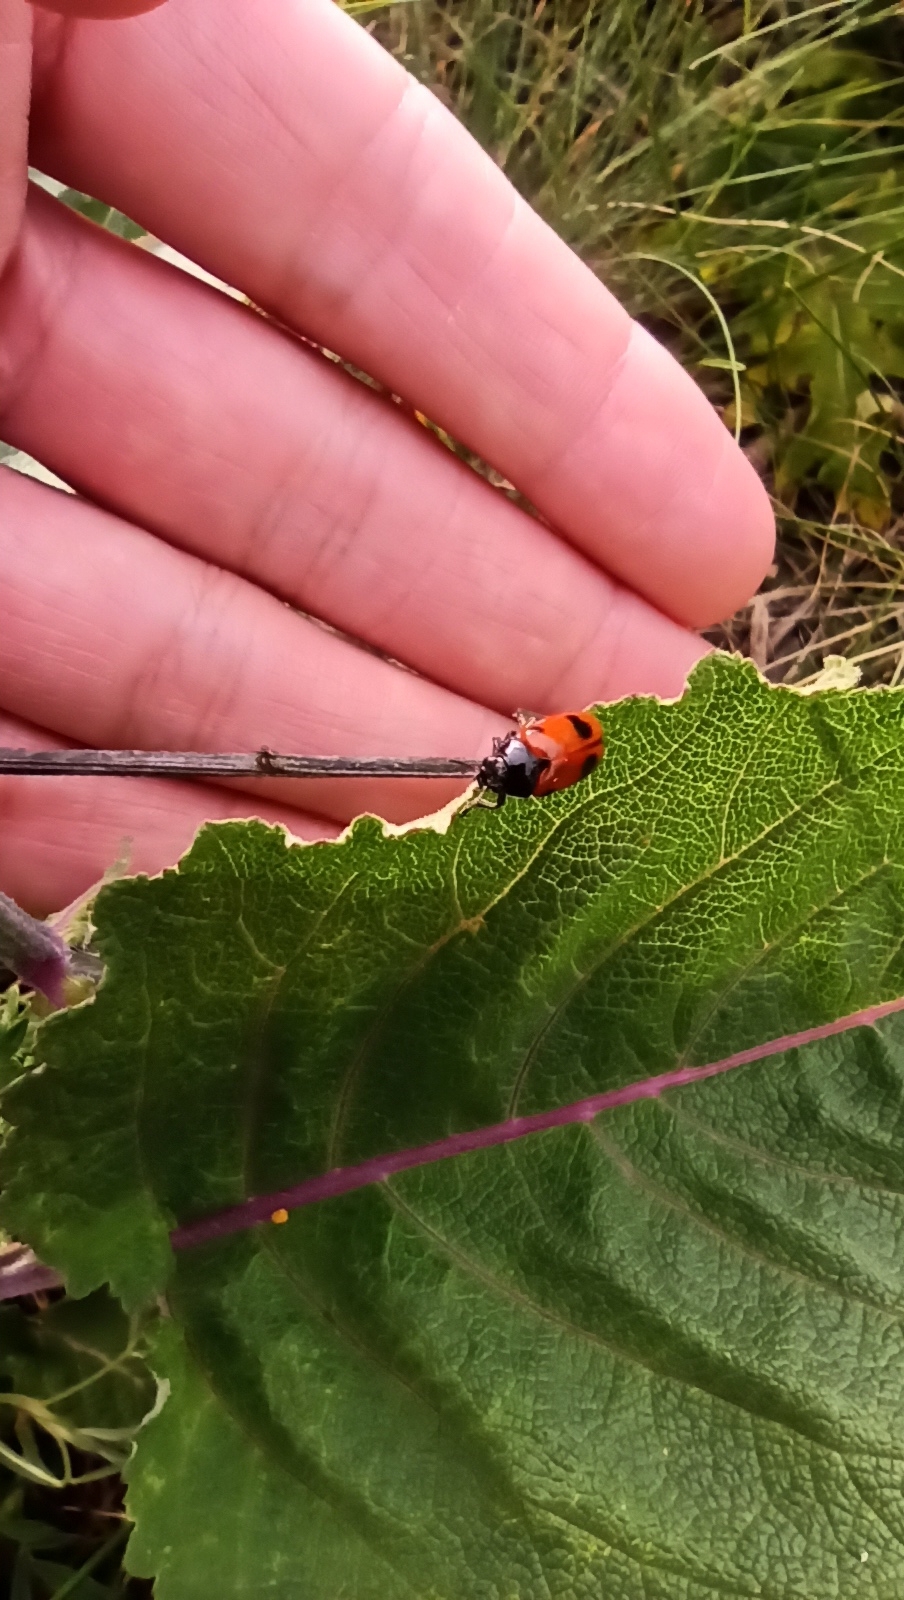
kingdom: Animalia
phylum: Arthropoda
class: Insecta
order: Coleoptera
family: Chrysomelidae
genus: Clytra
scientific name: Clytra laeviuscula
